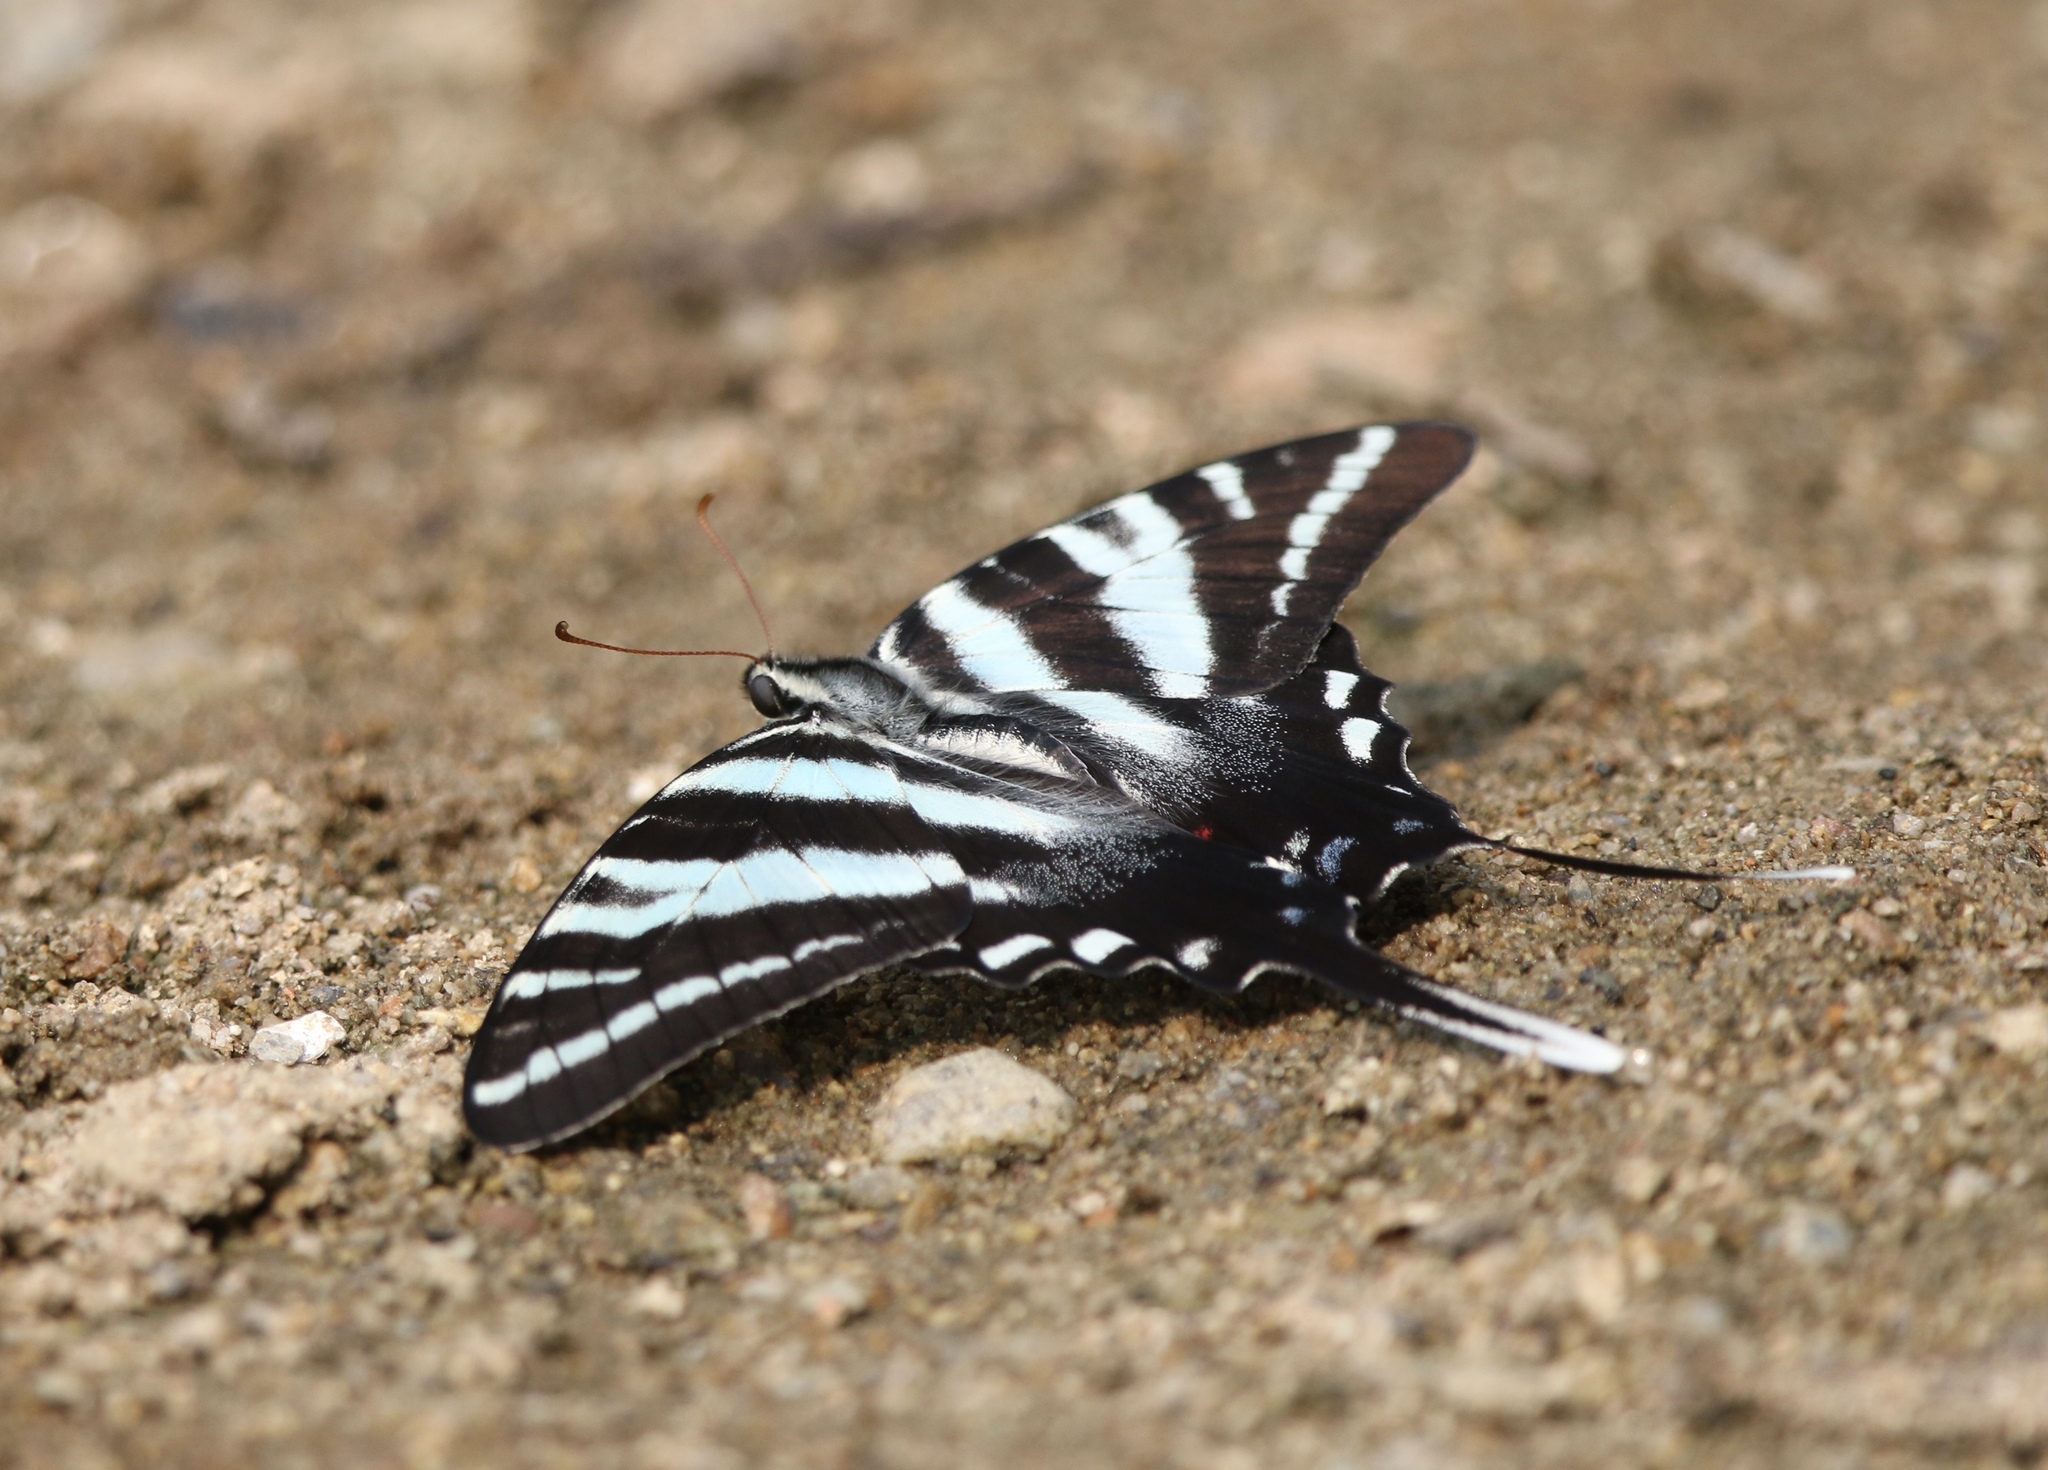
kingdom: Animalia
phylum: Arthropoda
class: Insecta
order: Lepidoptera
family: Papilionidae
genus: Protographium
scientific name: Protographium marcellus
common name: Zebra swallowtail
